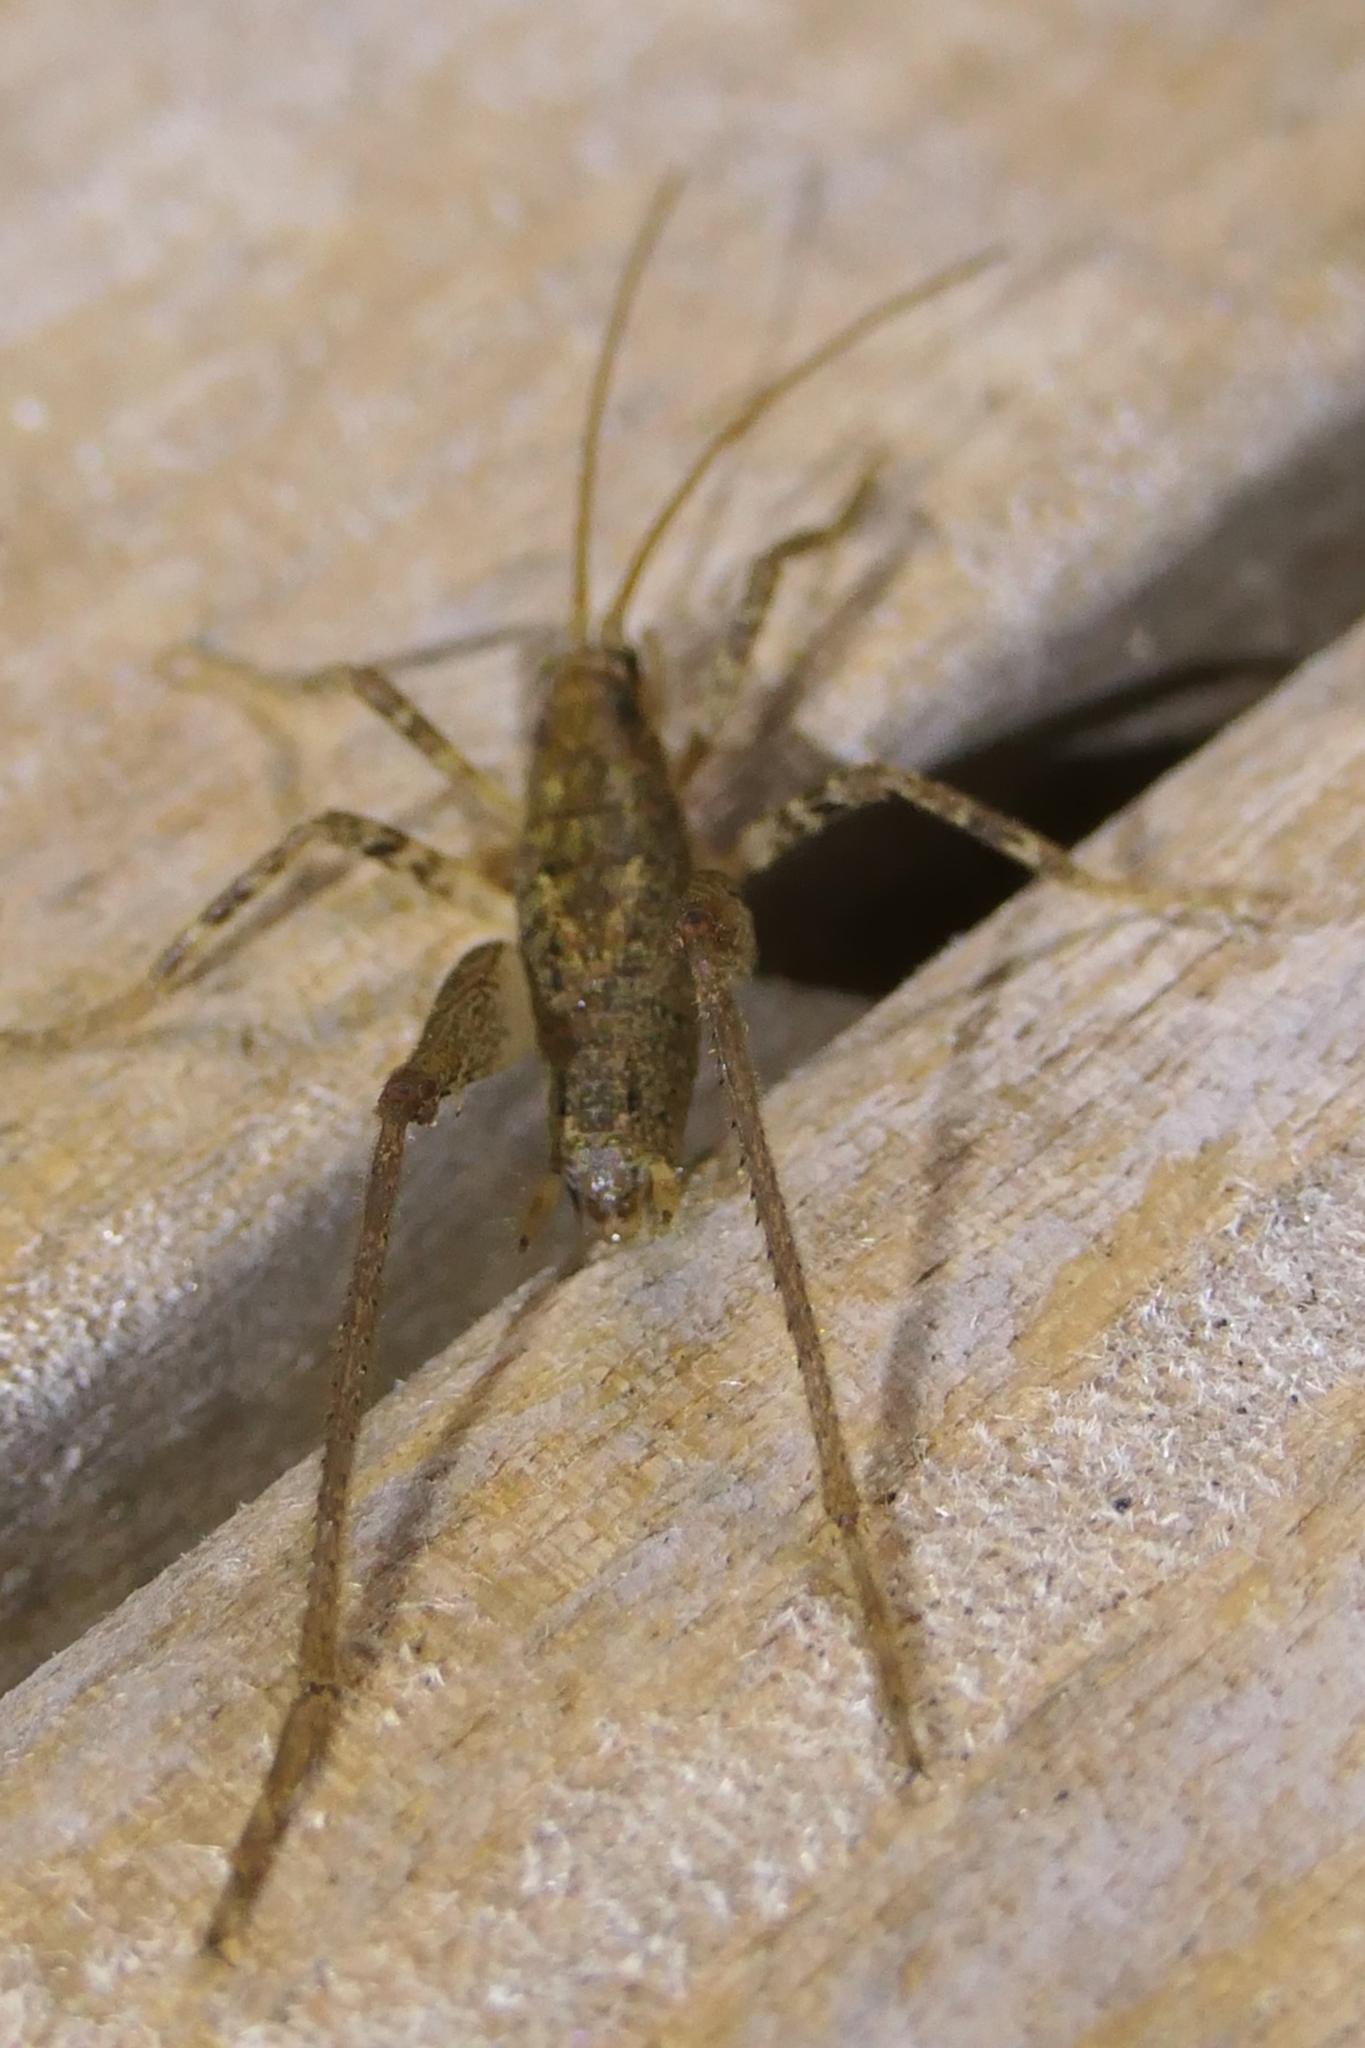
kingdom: Animalia
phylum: Arthropoda
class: Insecta
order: Orthoptera
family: Rhaphidophoridae
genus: Isoplectron
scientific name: Isoplectron armatum
